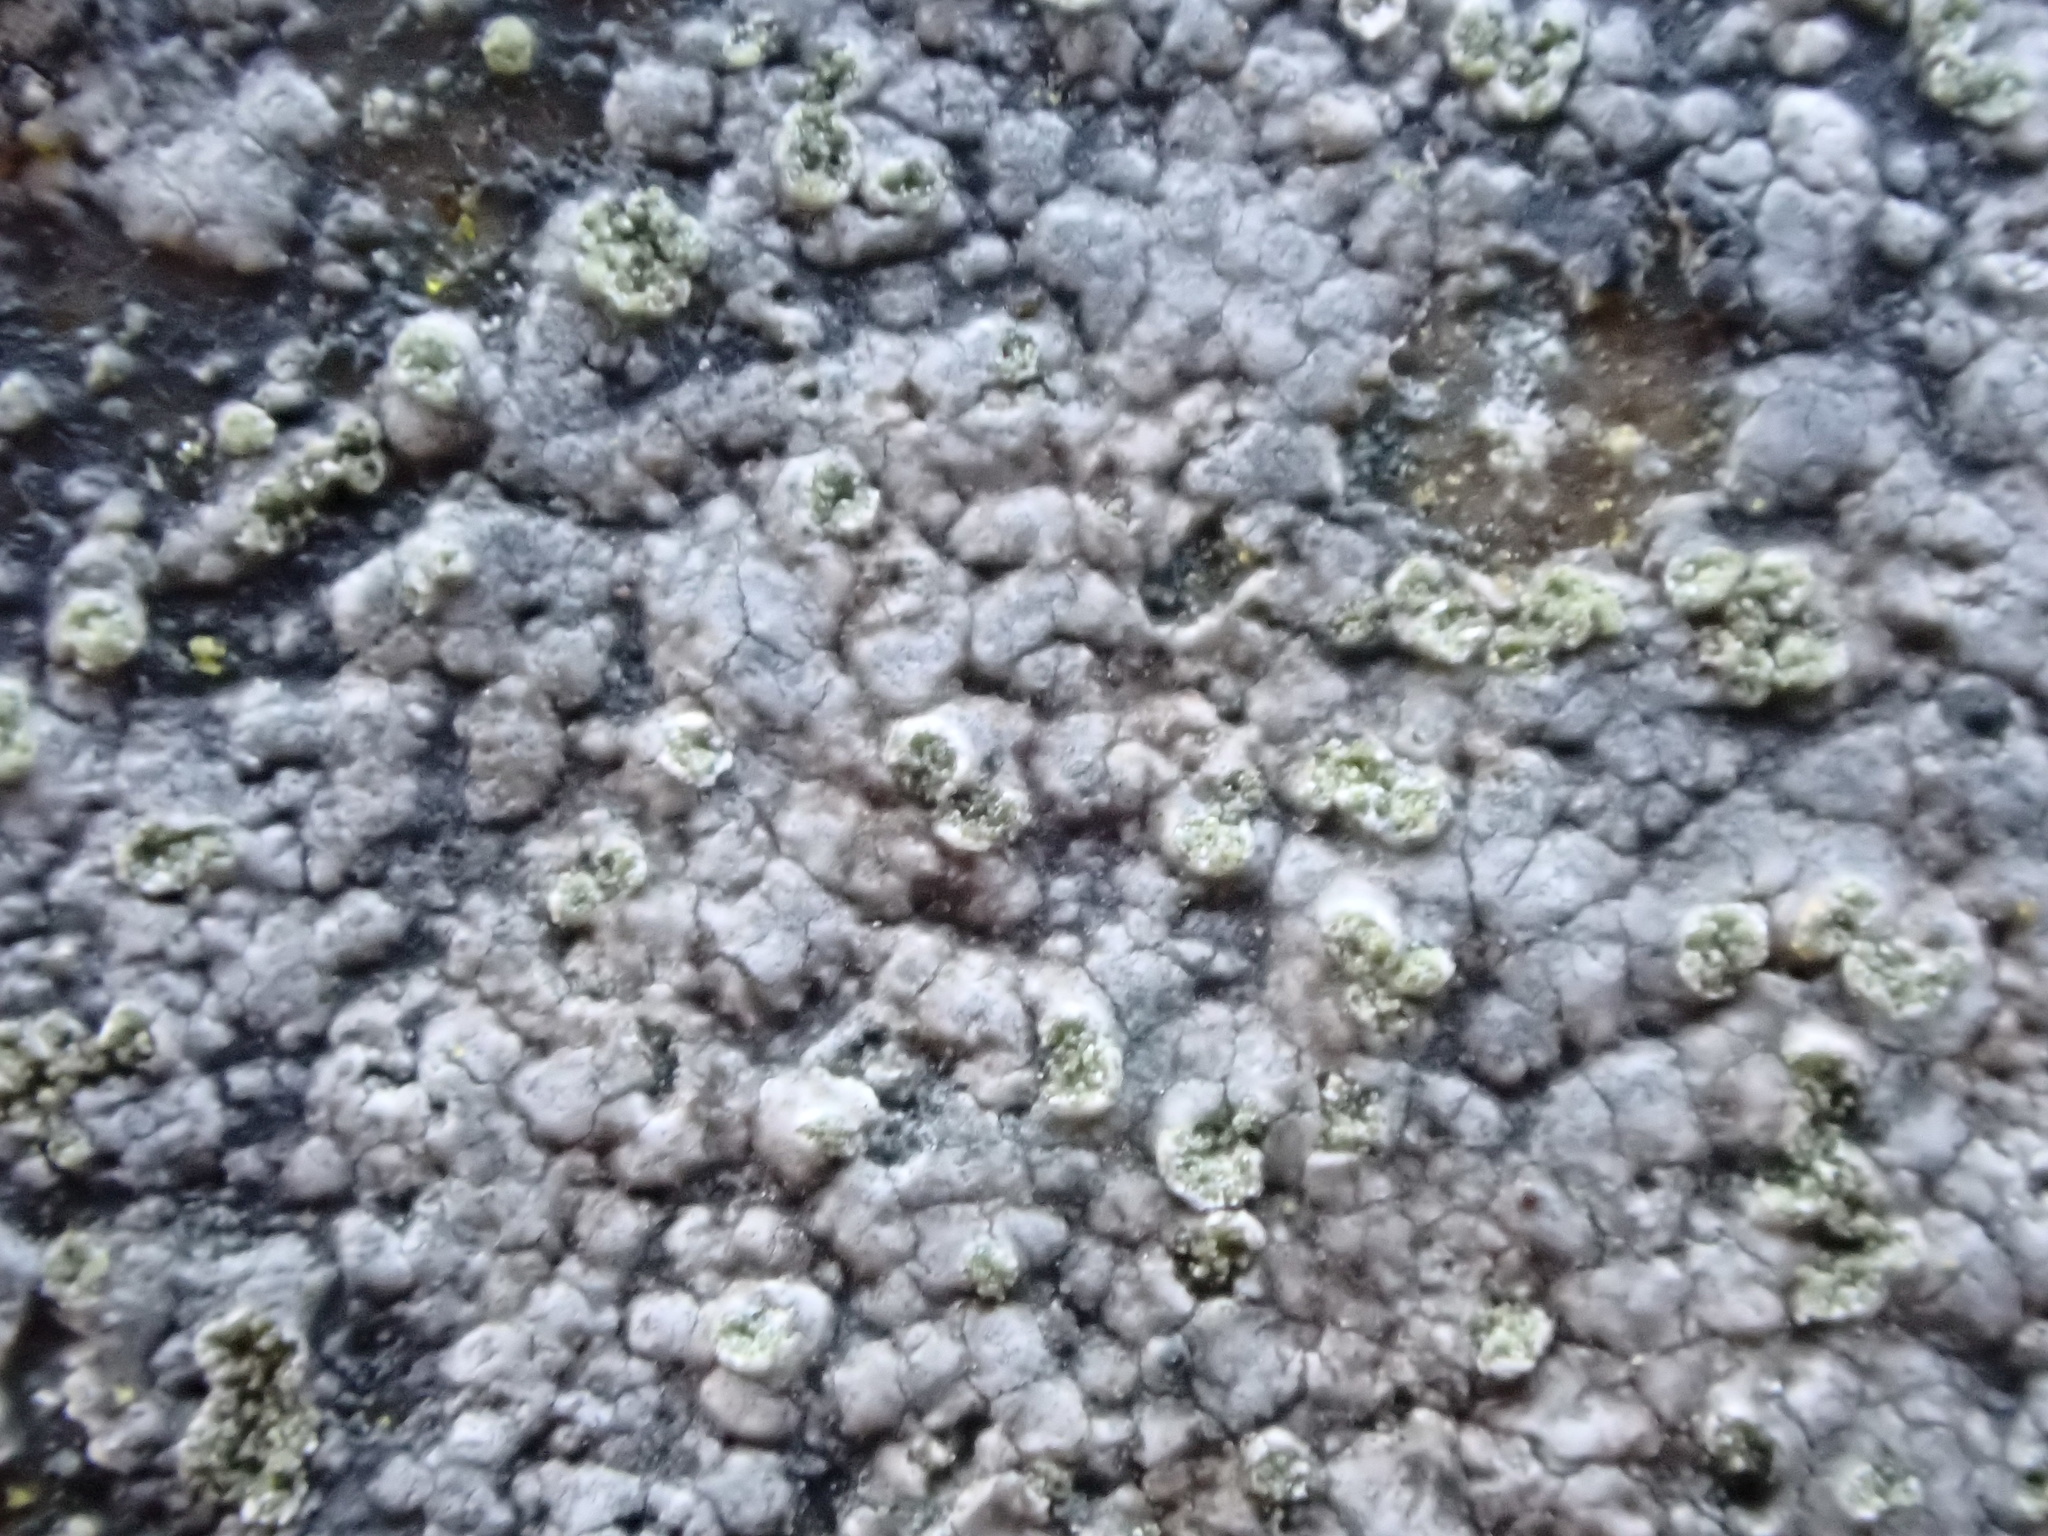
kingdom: Fungi
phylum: Ascomycota
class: Lecanoromycetes
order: Lecideales
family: Lecideaceae
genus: Porpidia
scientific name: Porpidia soredizodes
